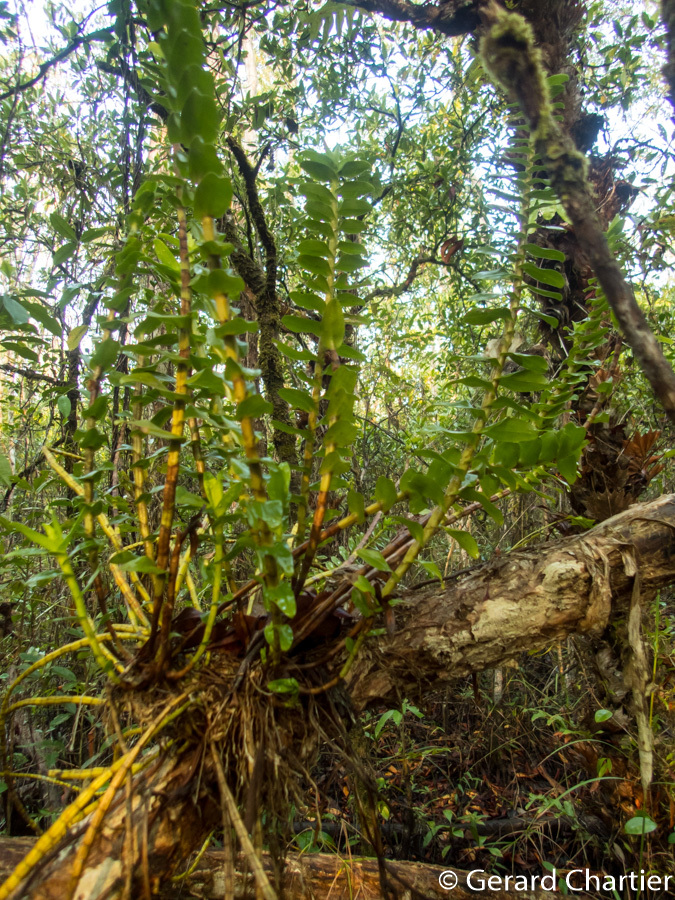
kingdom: Plantae
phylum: Tracheophyta
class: Liliopsida
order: Asparagales
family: Orchidaceae
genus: Dendrobium
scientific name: Dendrobium ellipsophyllum
